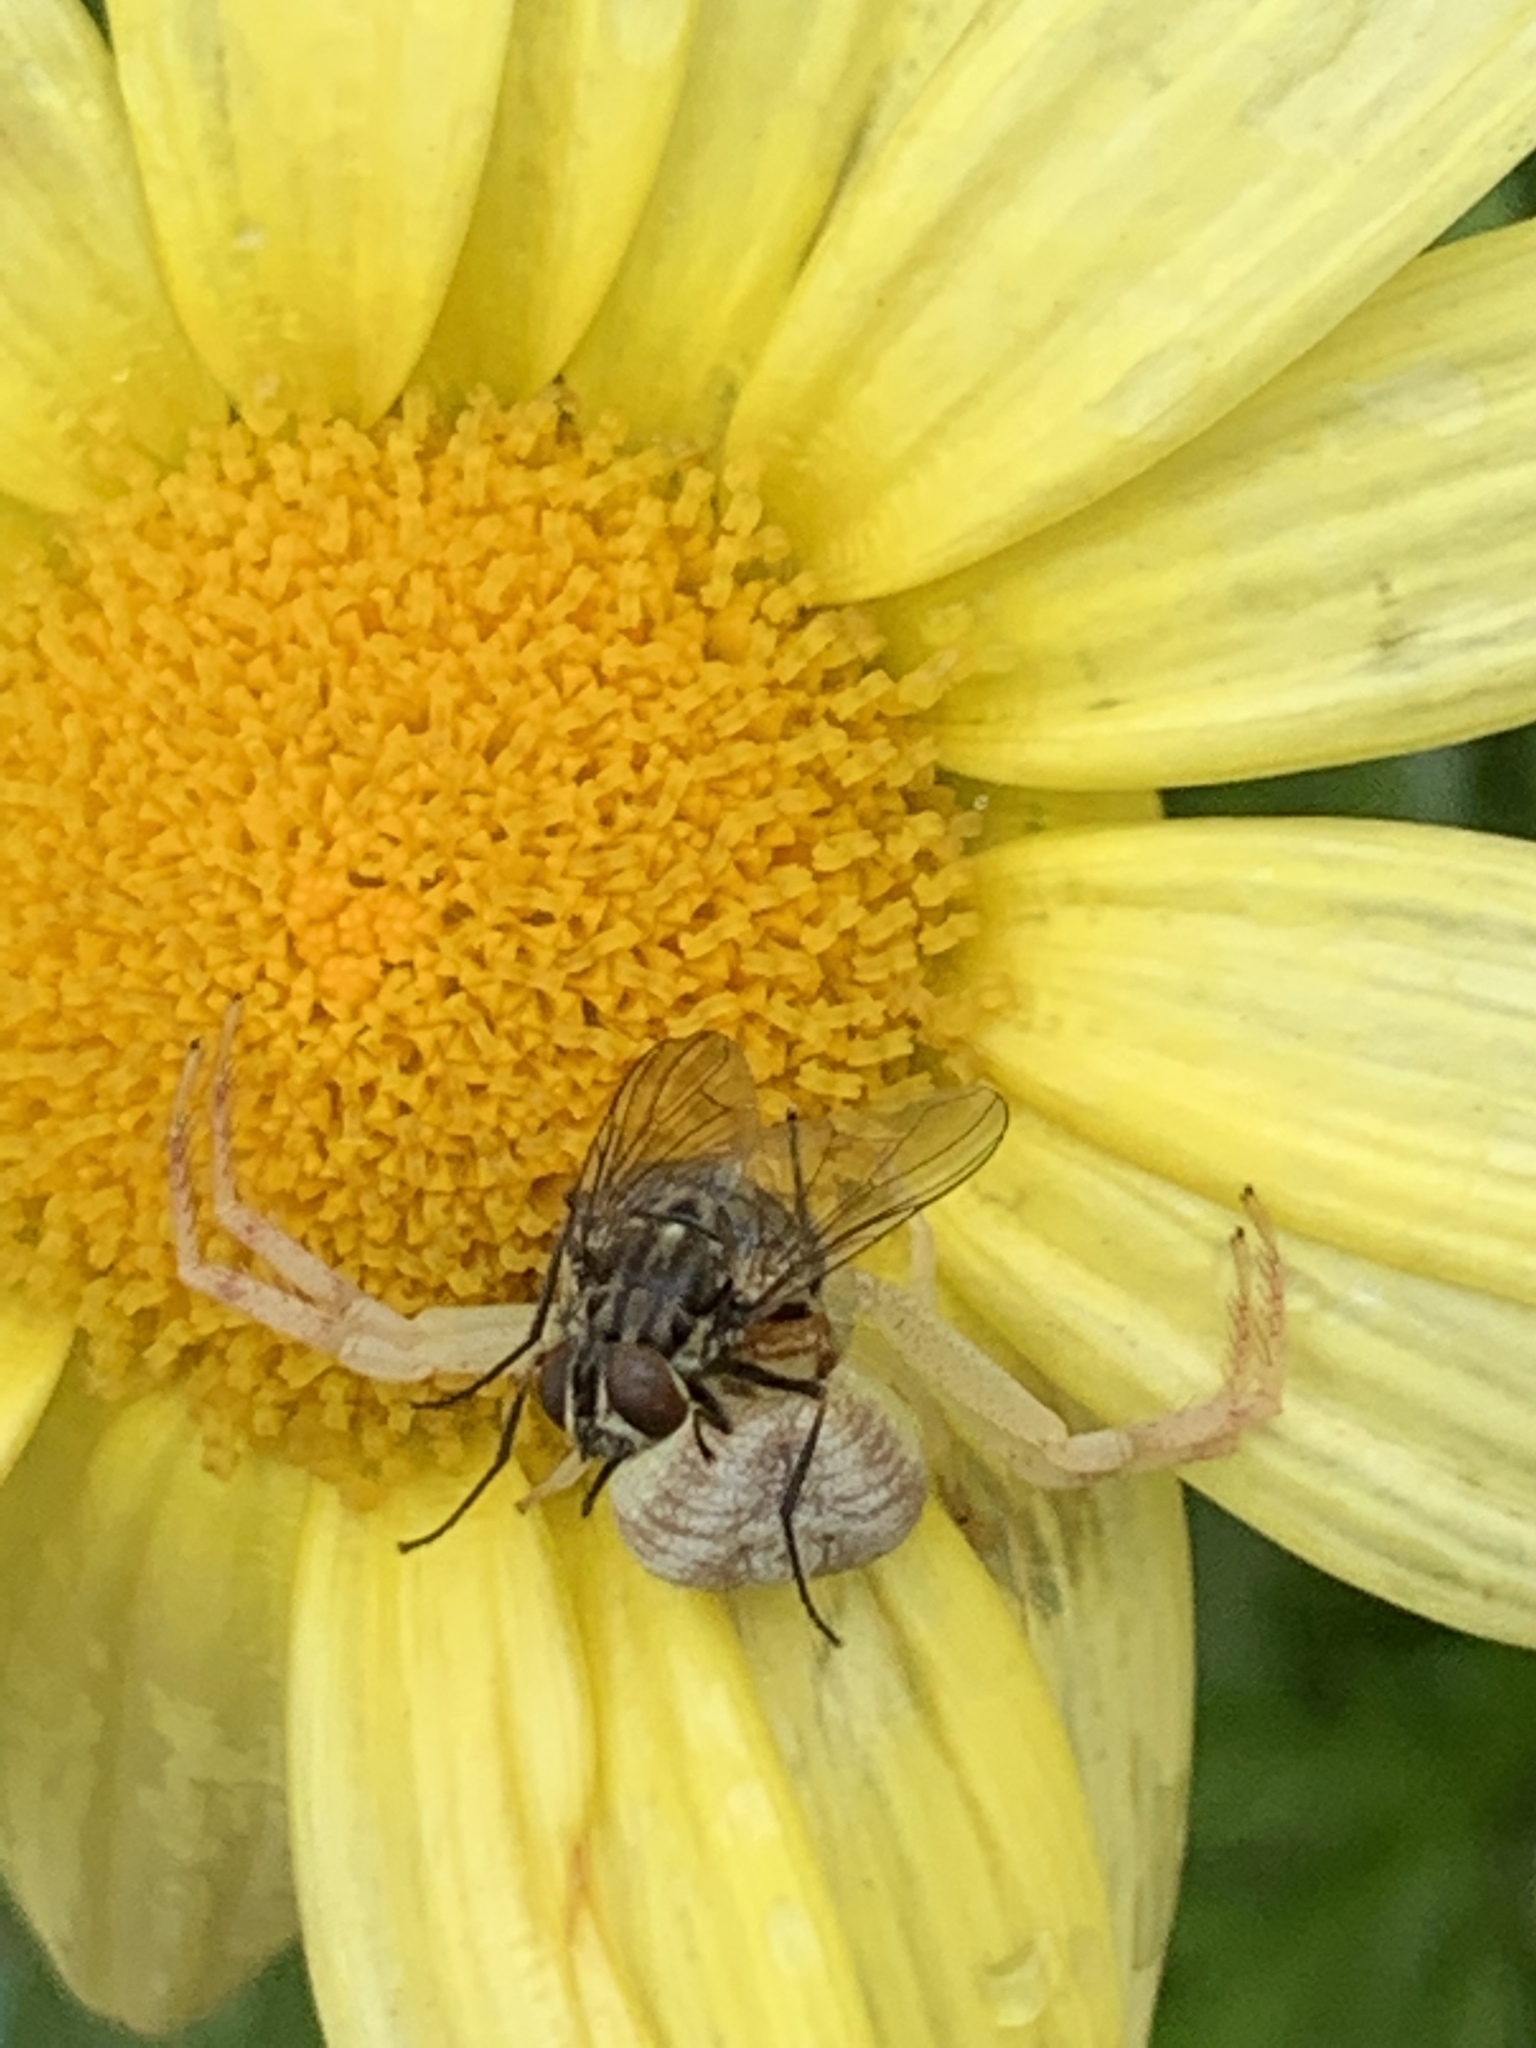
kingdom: Animalia
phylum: Arthropoda
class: Insecta
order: Diptera
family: Muscidae
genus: Stomoxys
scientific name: Stomoxys calcitrans
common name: Stable fly
